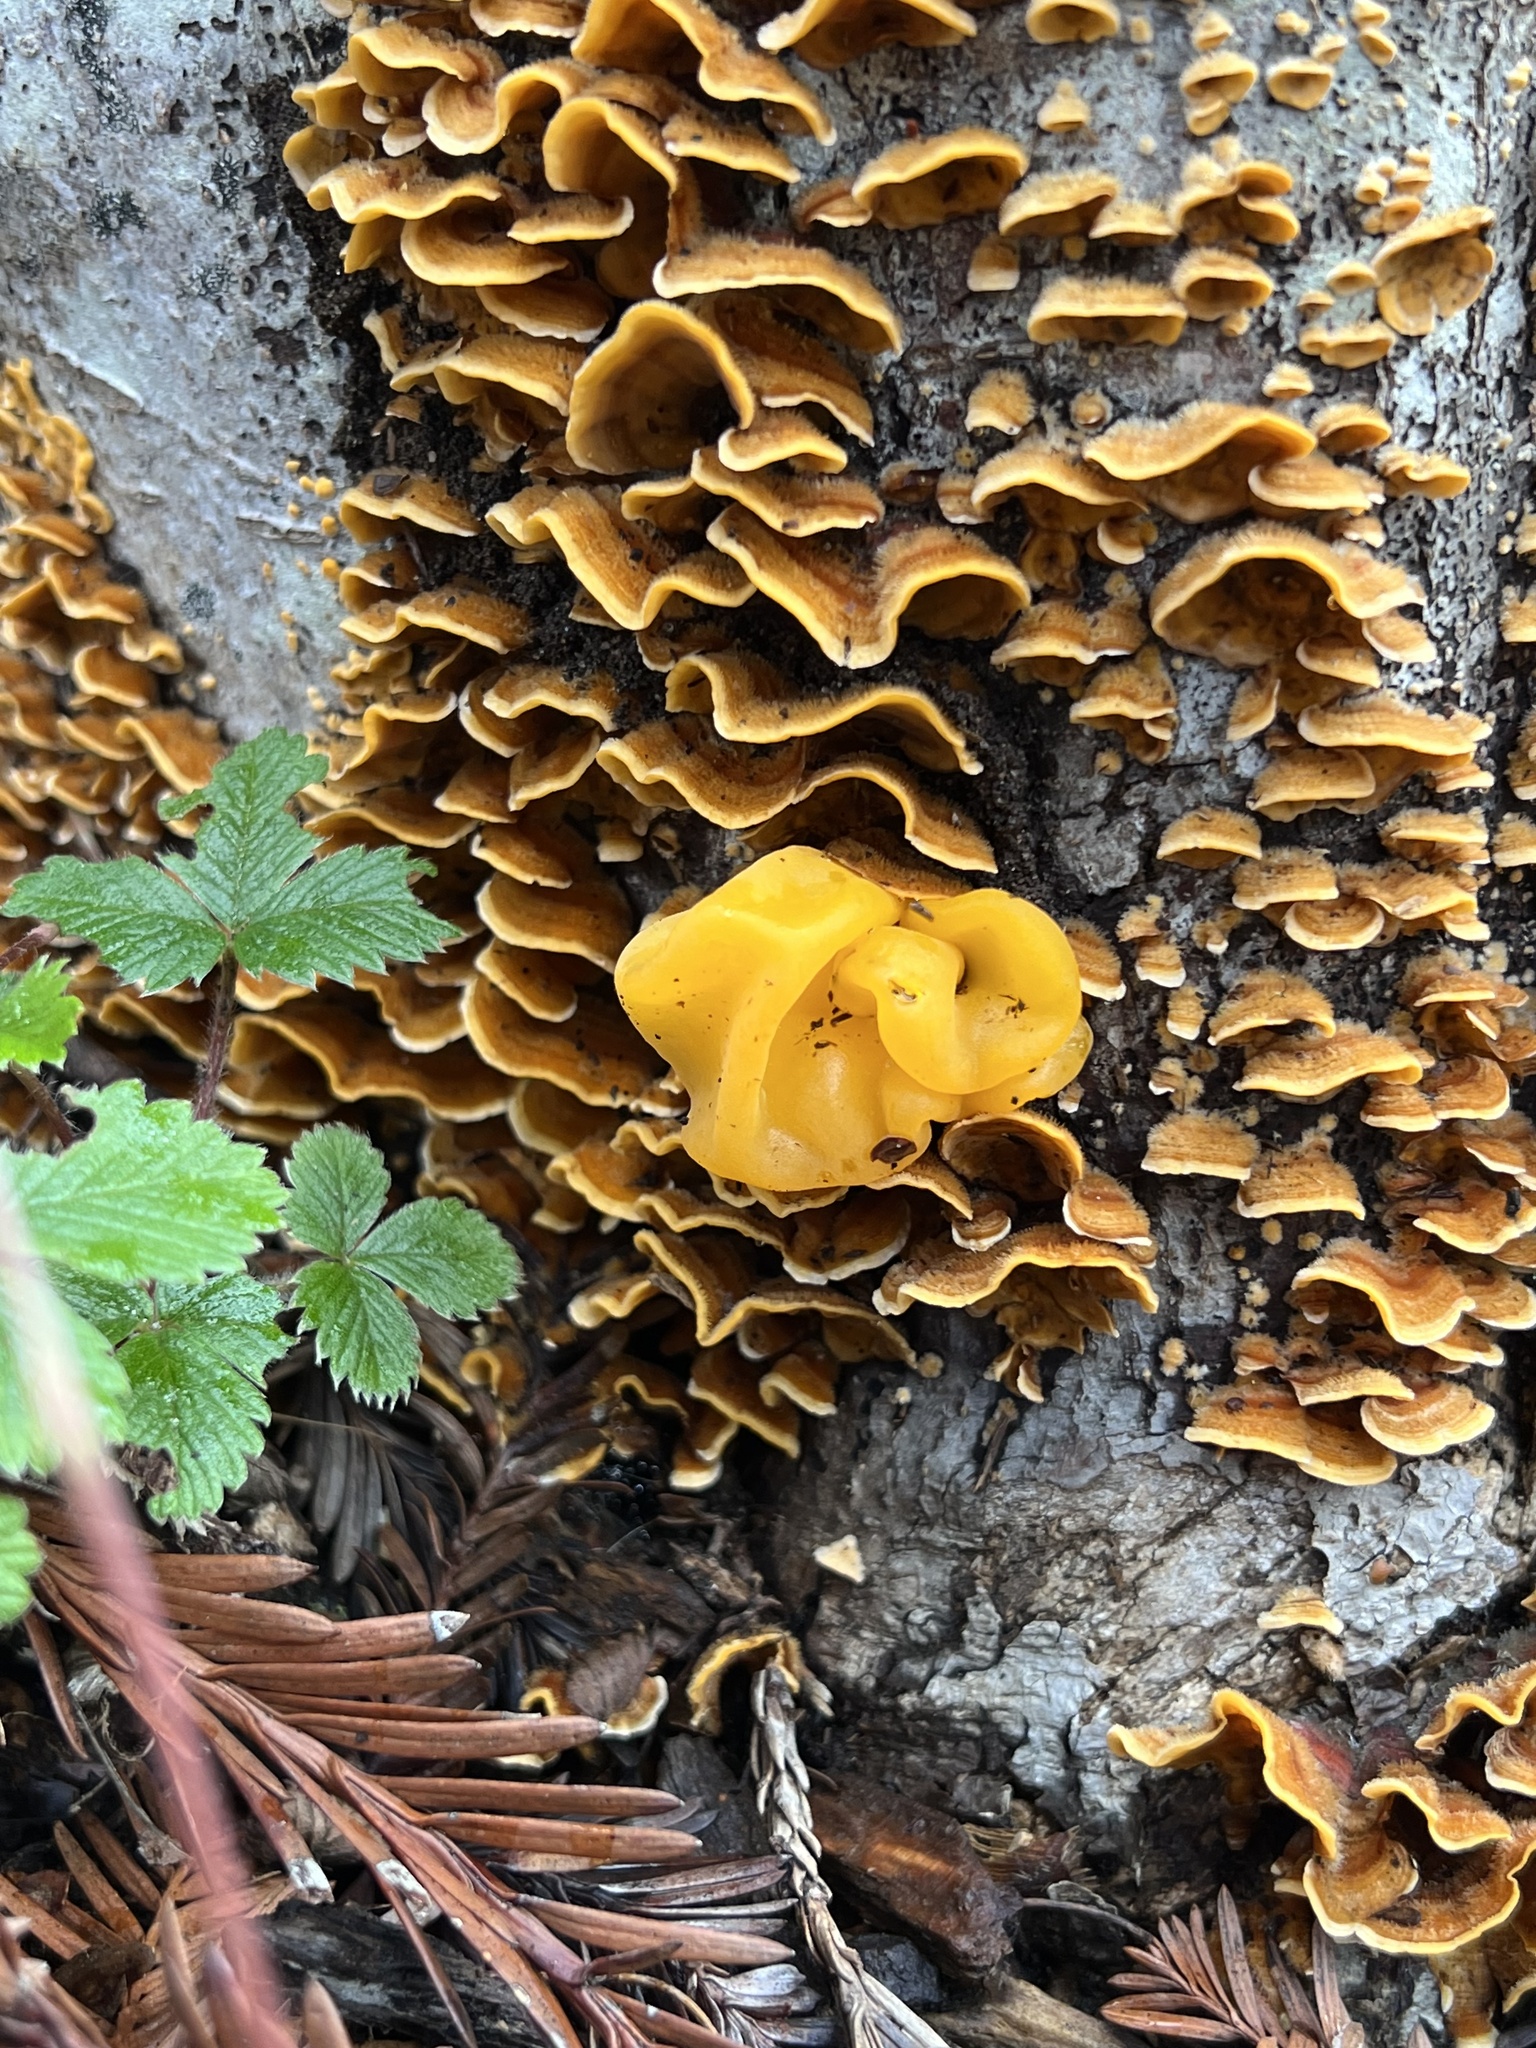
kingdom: Fungi
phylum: Basidiomycota
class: Tremellomycetes
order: Tremellales
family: Naemateliaceae
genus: Naematelia
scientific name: Naematelia aurantia
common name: Golden ear
